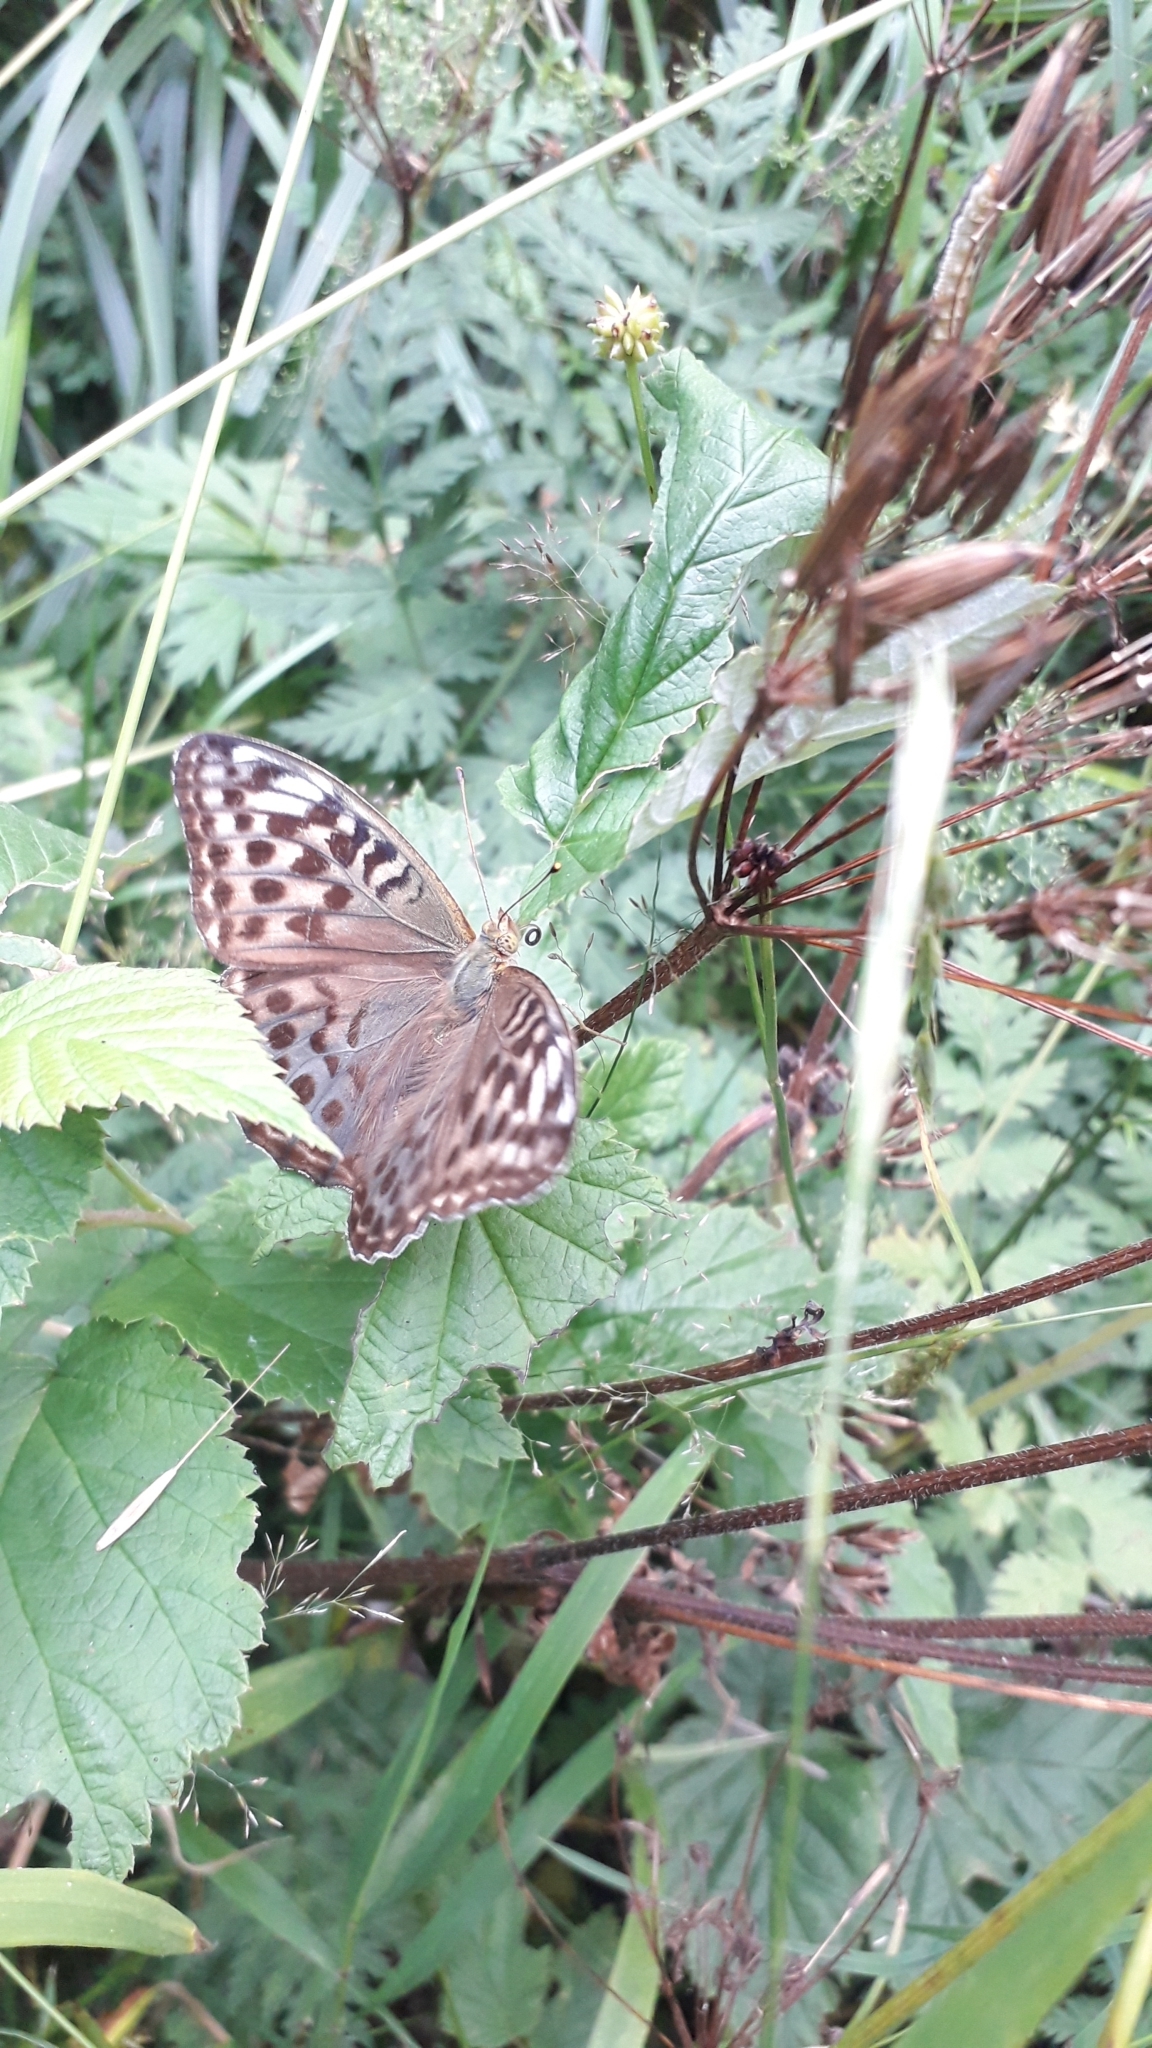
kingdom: Animalia
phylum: Arthropoda
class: Insecta
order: Lepidoptera
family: Nymphalidae
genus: Argynnis
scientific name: Argynnis paphia
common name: Silver-washed fritillary
